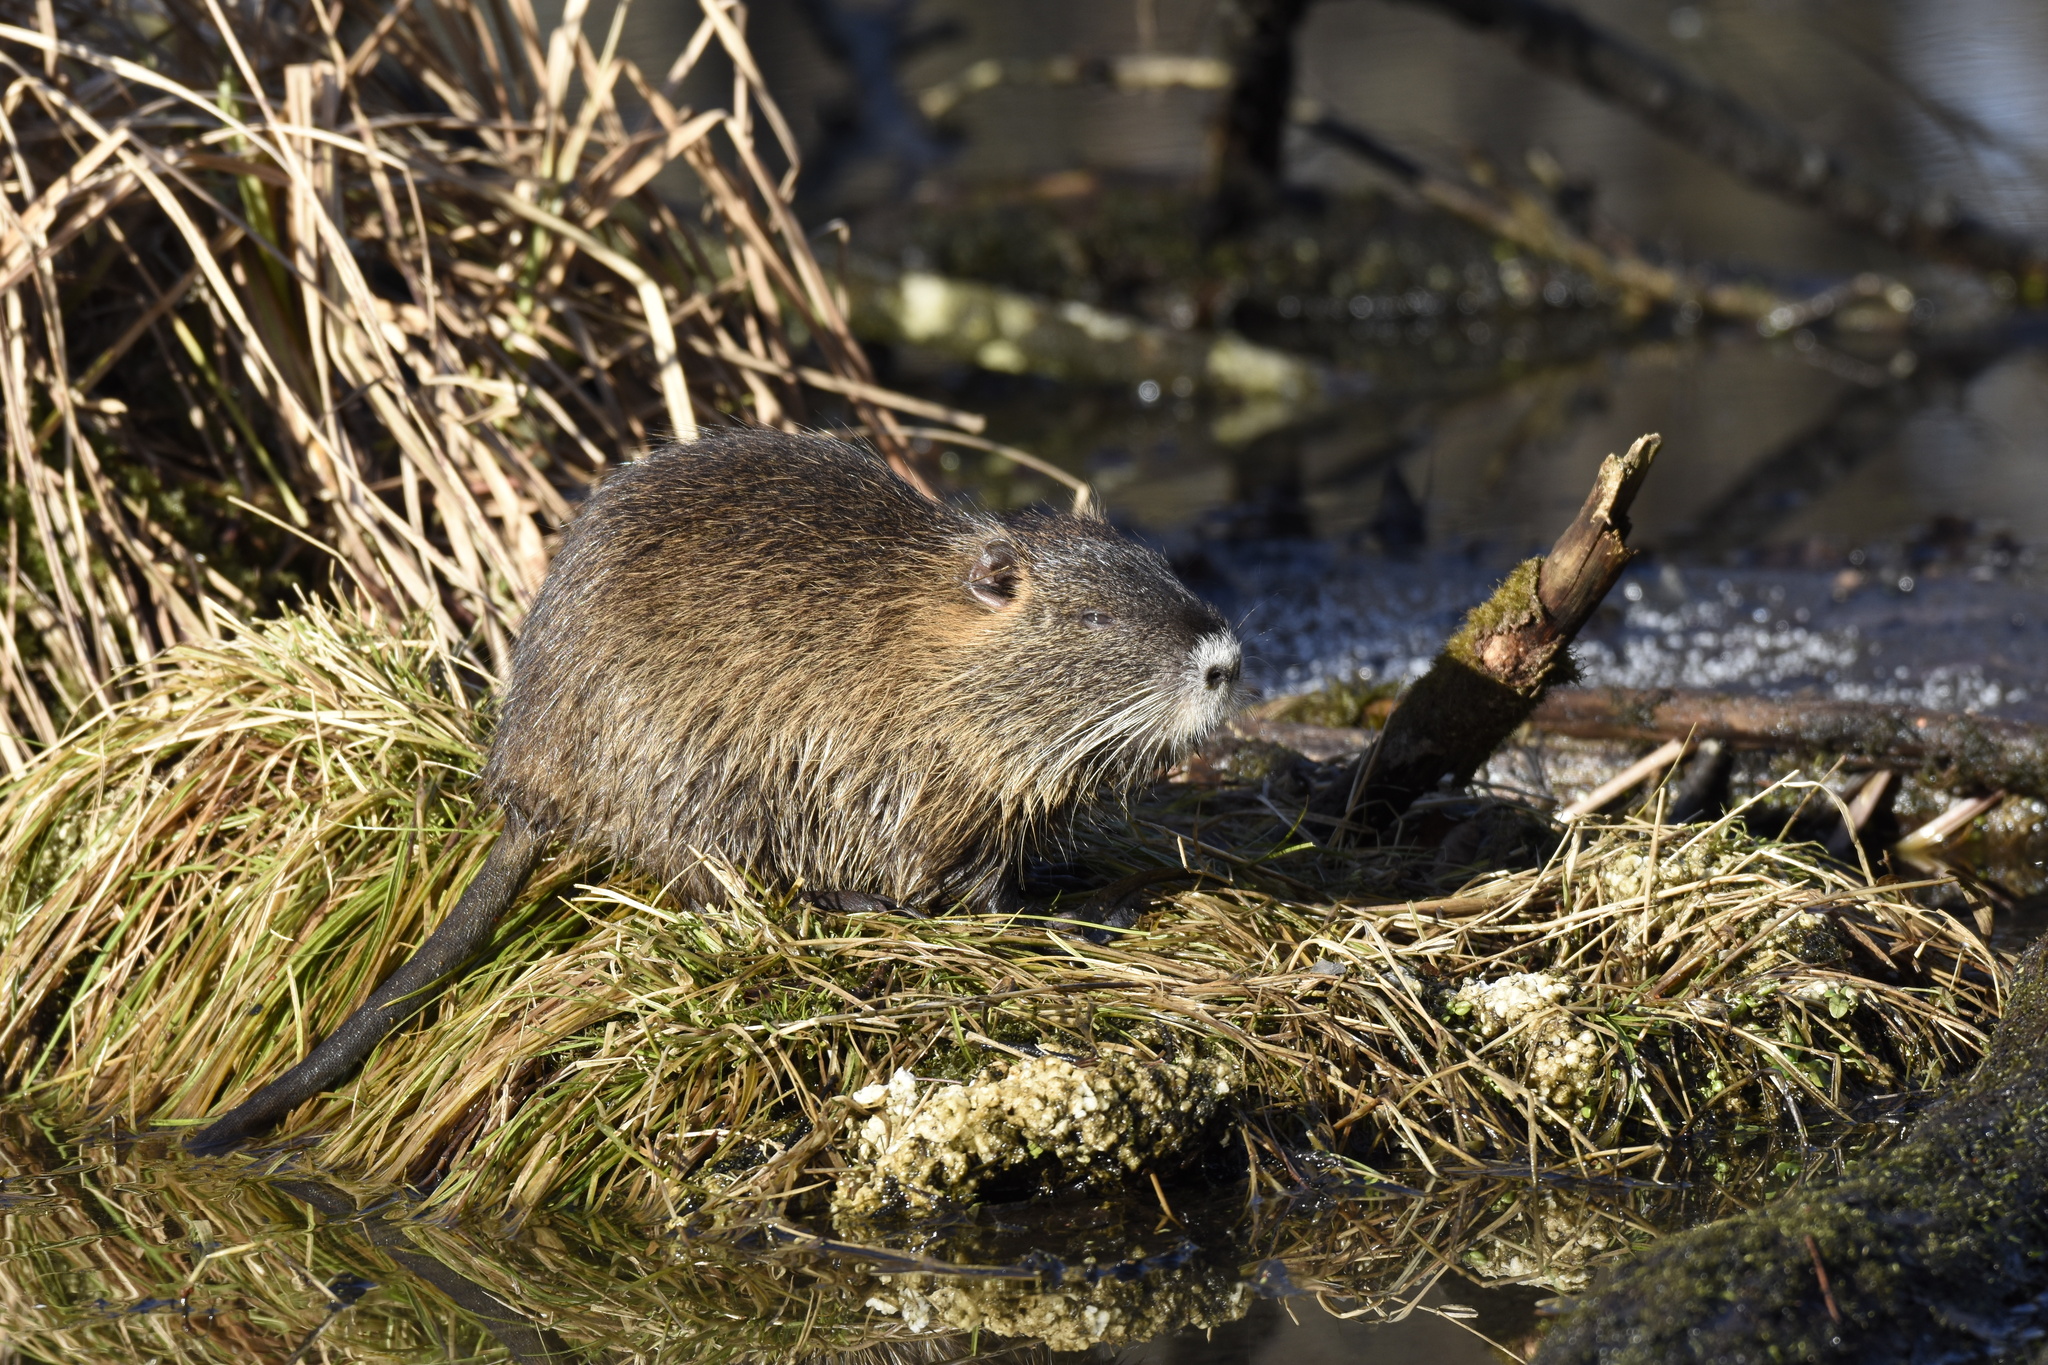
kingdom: Animalia
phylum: Chordata
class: Mammalia
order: Rodentia
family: Myocastoridae
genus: Myocastor
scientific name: Myocastor coypus
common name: Coypu
